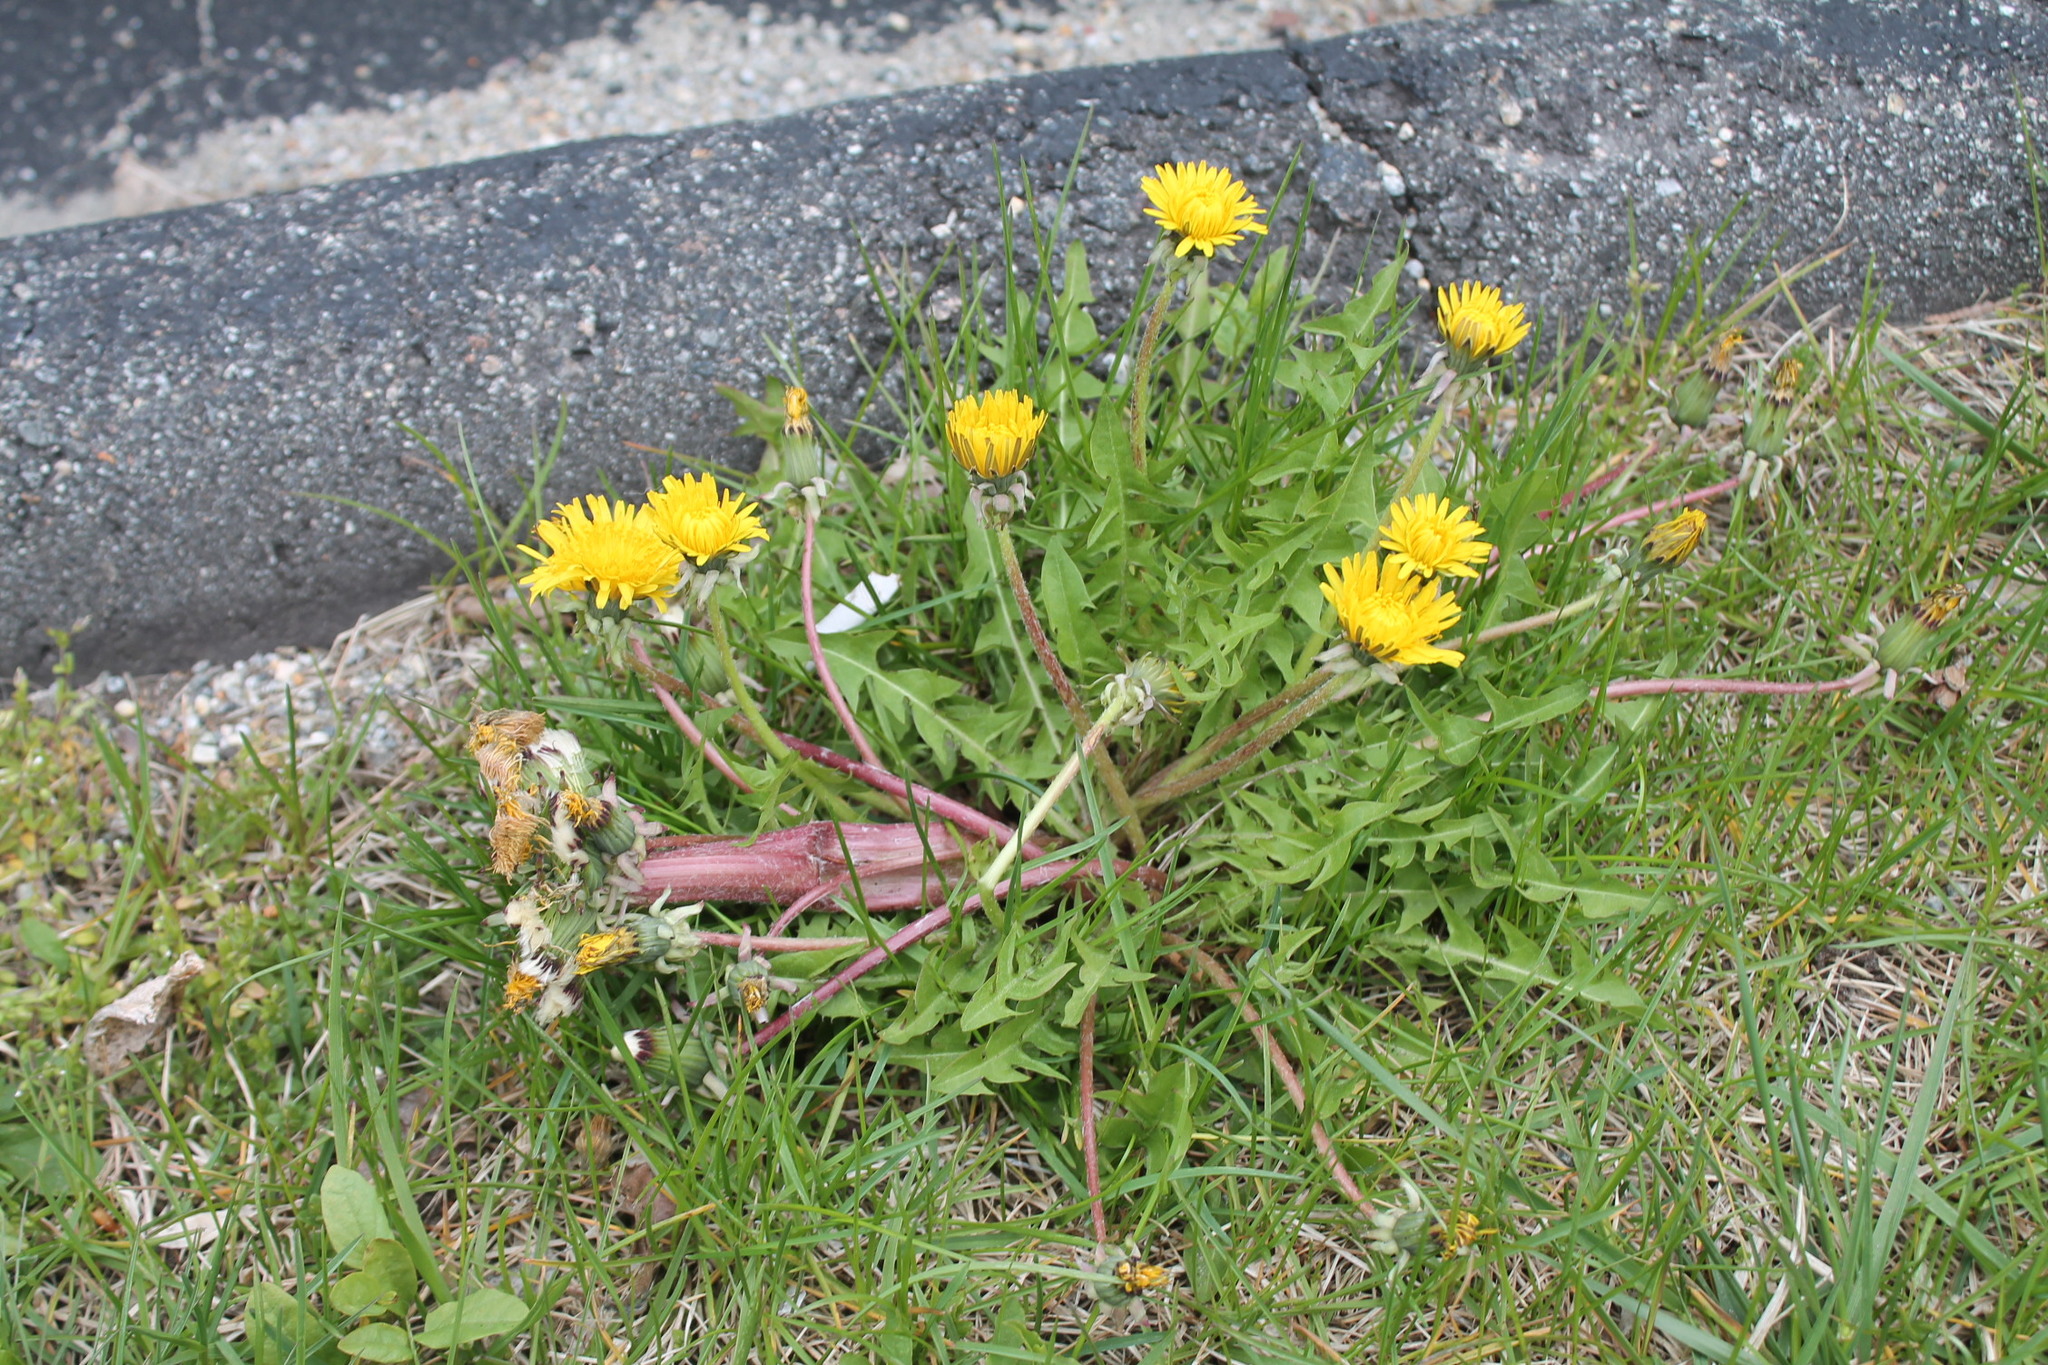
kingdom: Plantae
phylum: Tracheophyta
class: Magnoliopsida
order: Asterales
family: Asteraceae
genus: Taraxacum
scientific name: Taraxacum erythrospermum
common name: Rock dandelion
